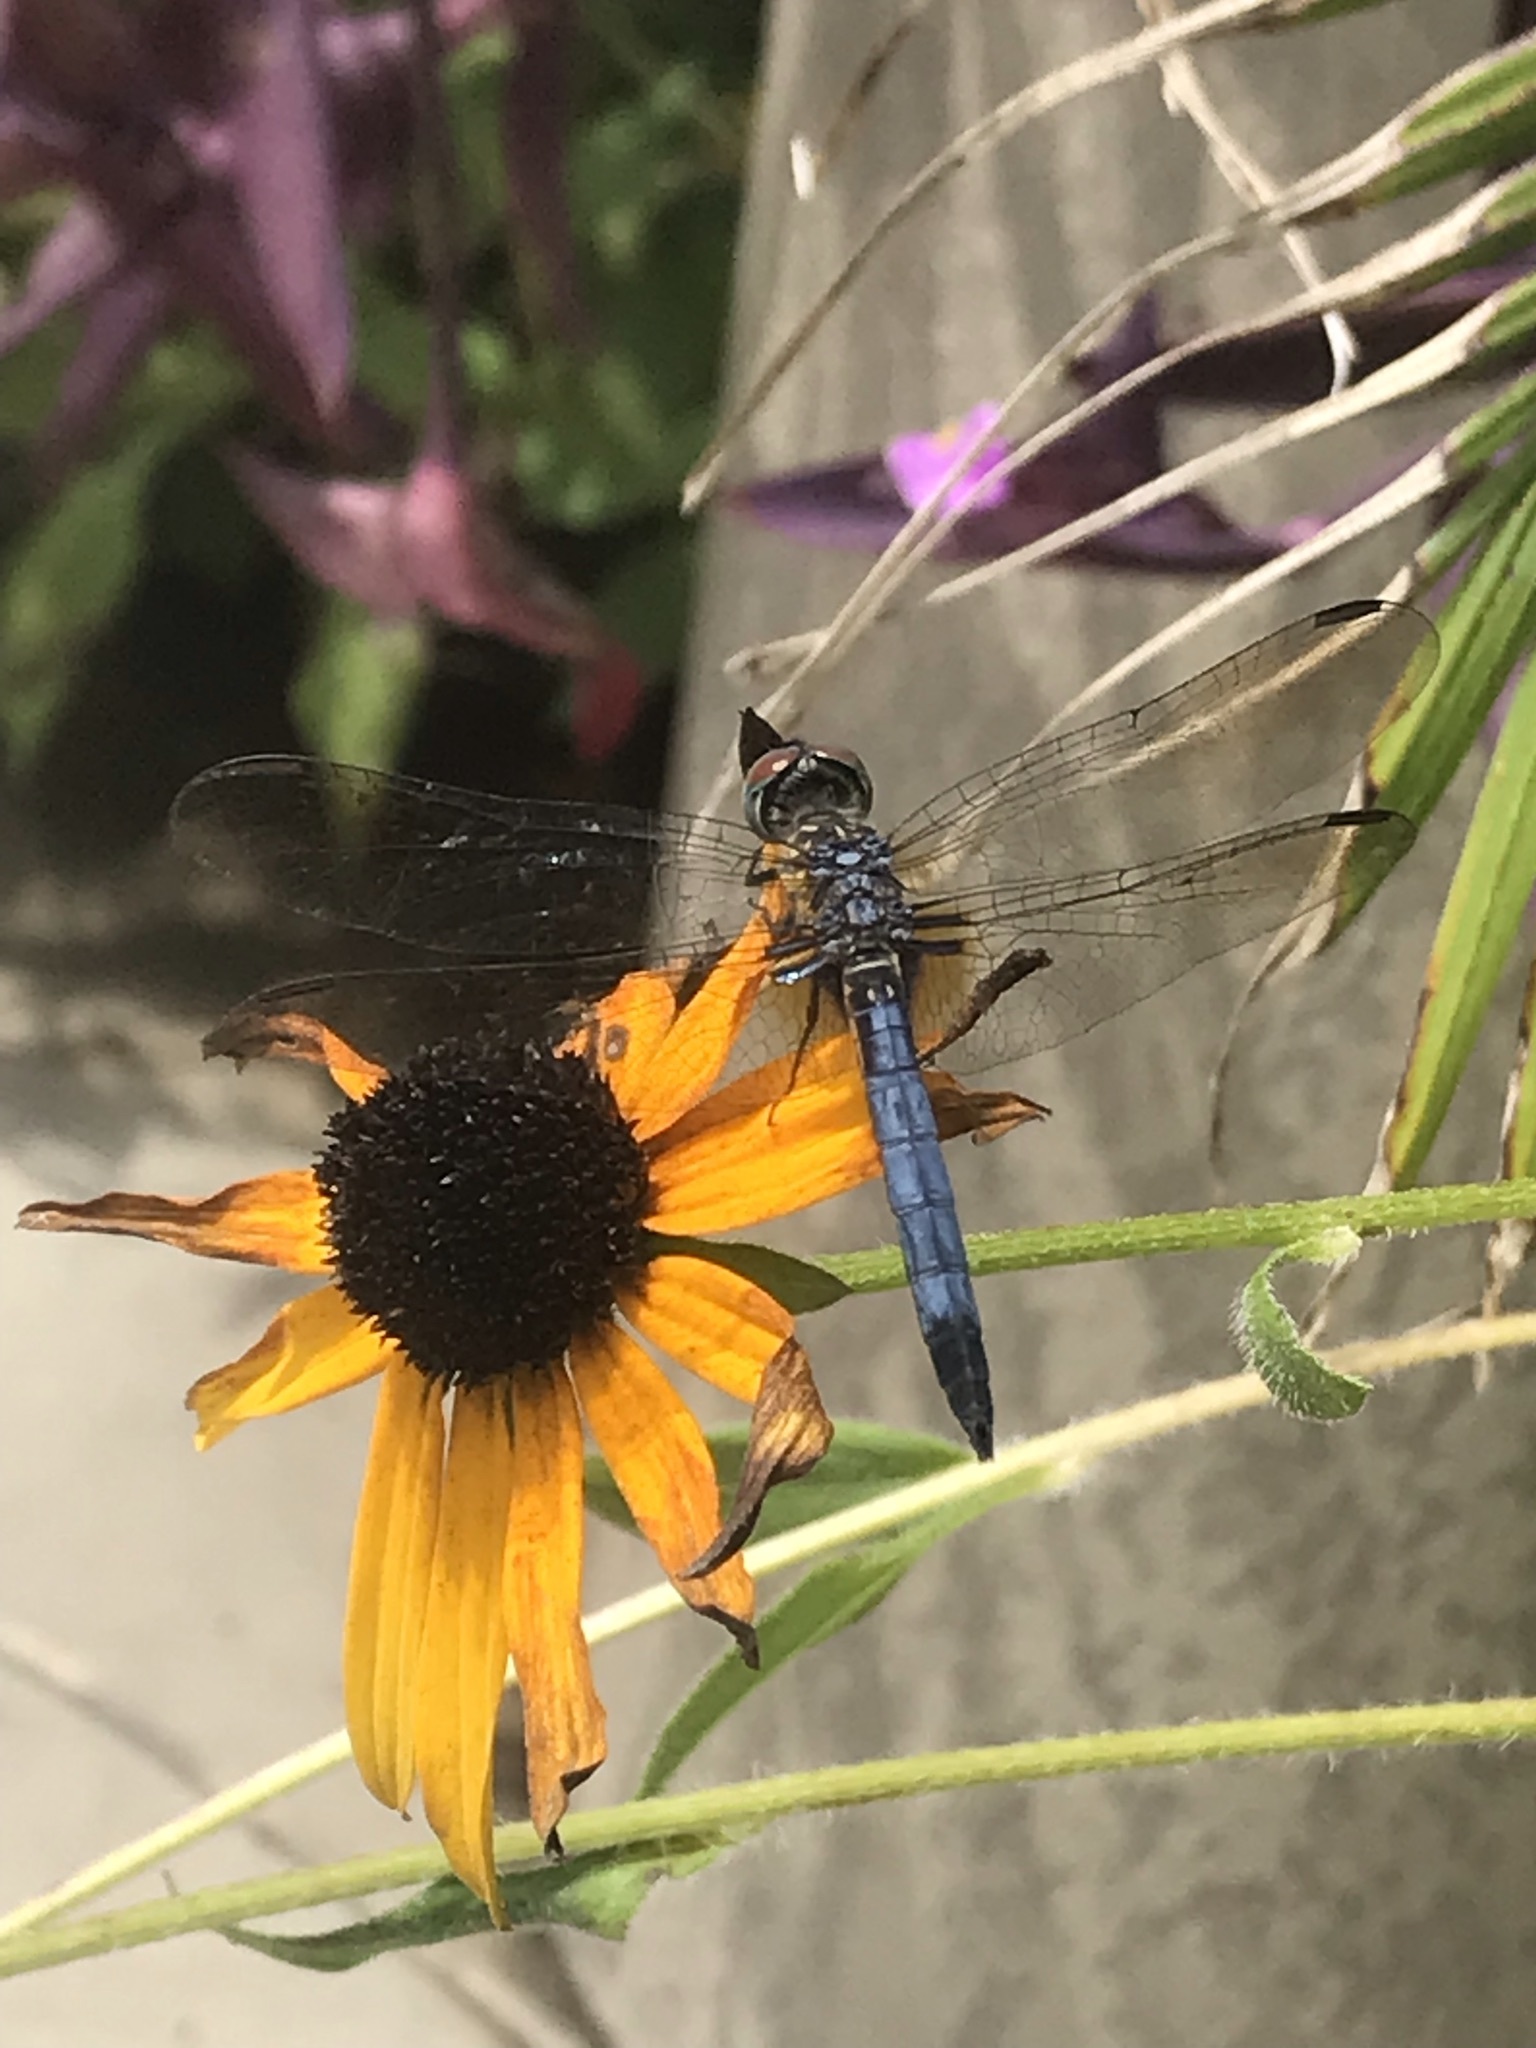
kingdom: Animalia
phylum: Arthropoda
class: Insecta
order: Odonata
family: Libellulidae
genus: Pachydiplax
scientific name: Pachydiplax longipennis
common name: Blue dasher
